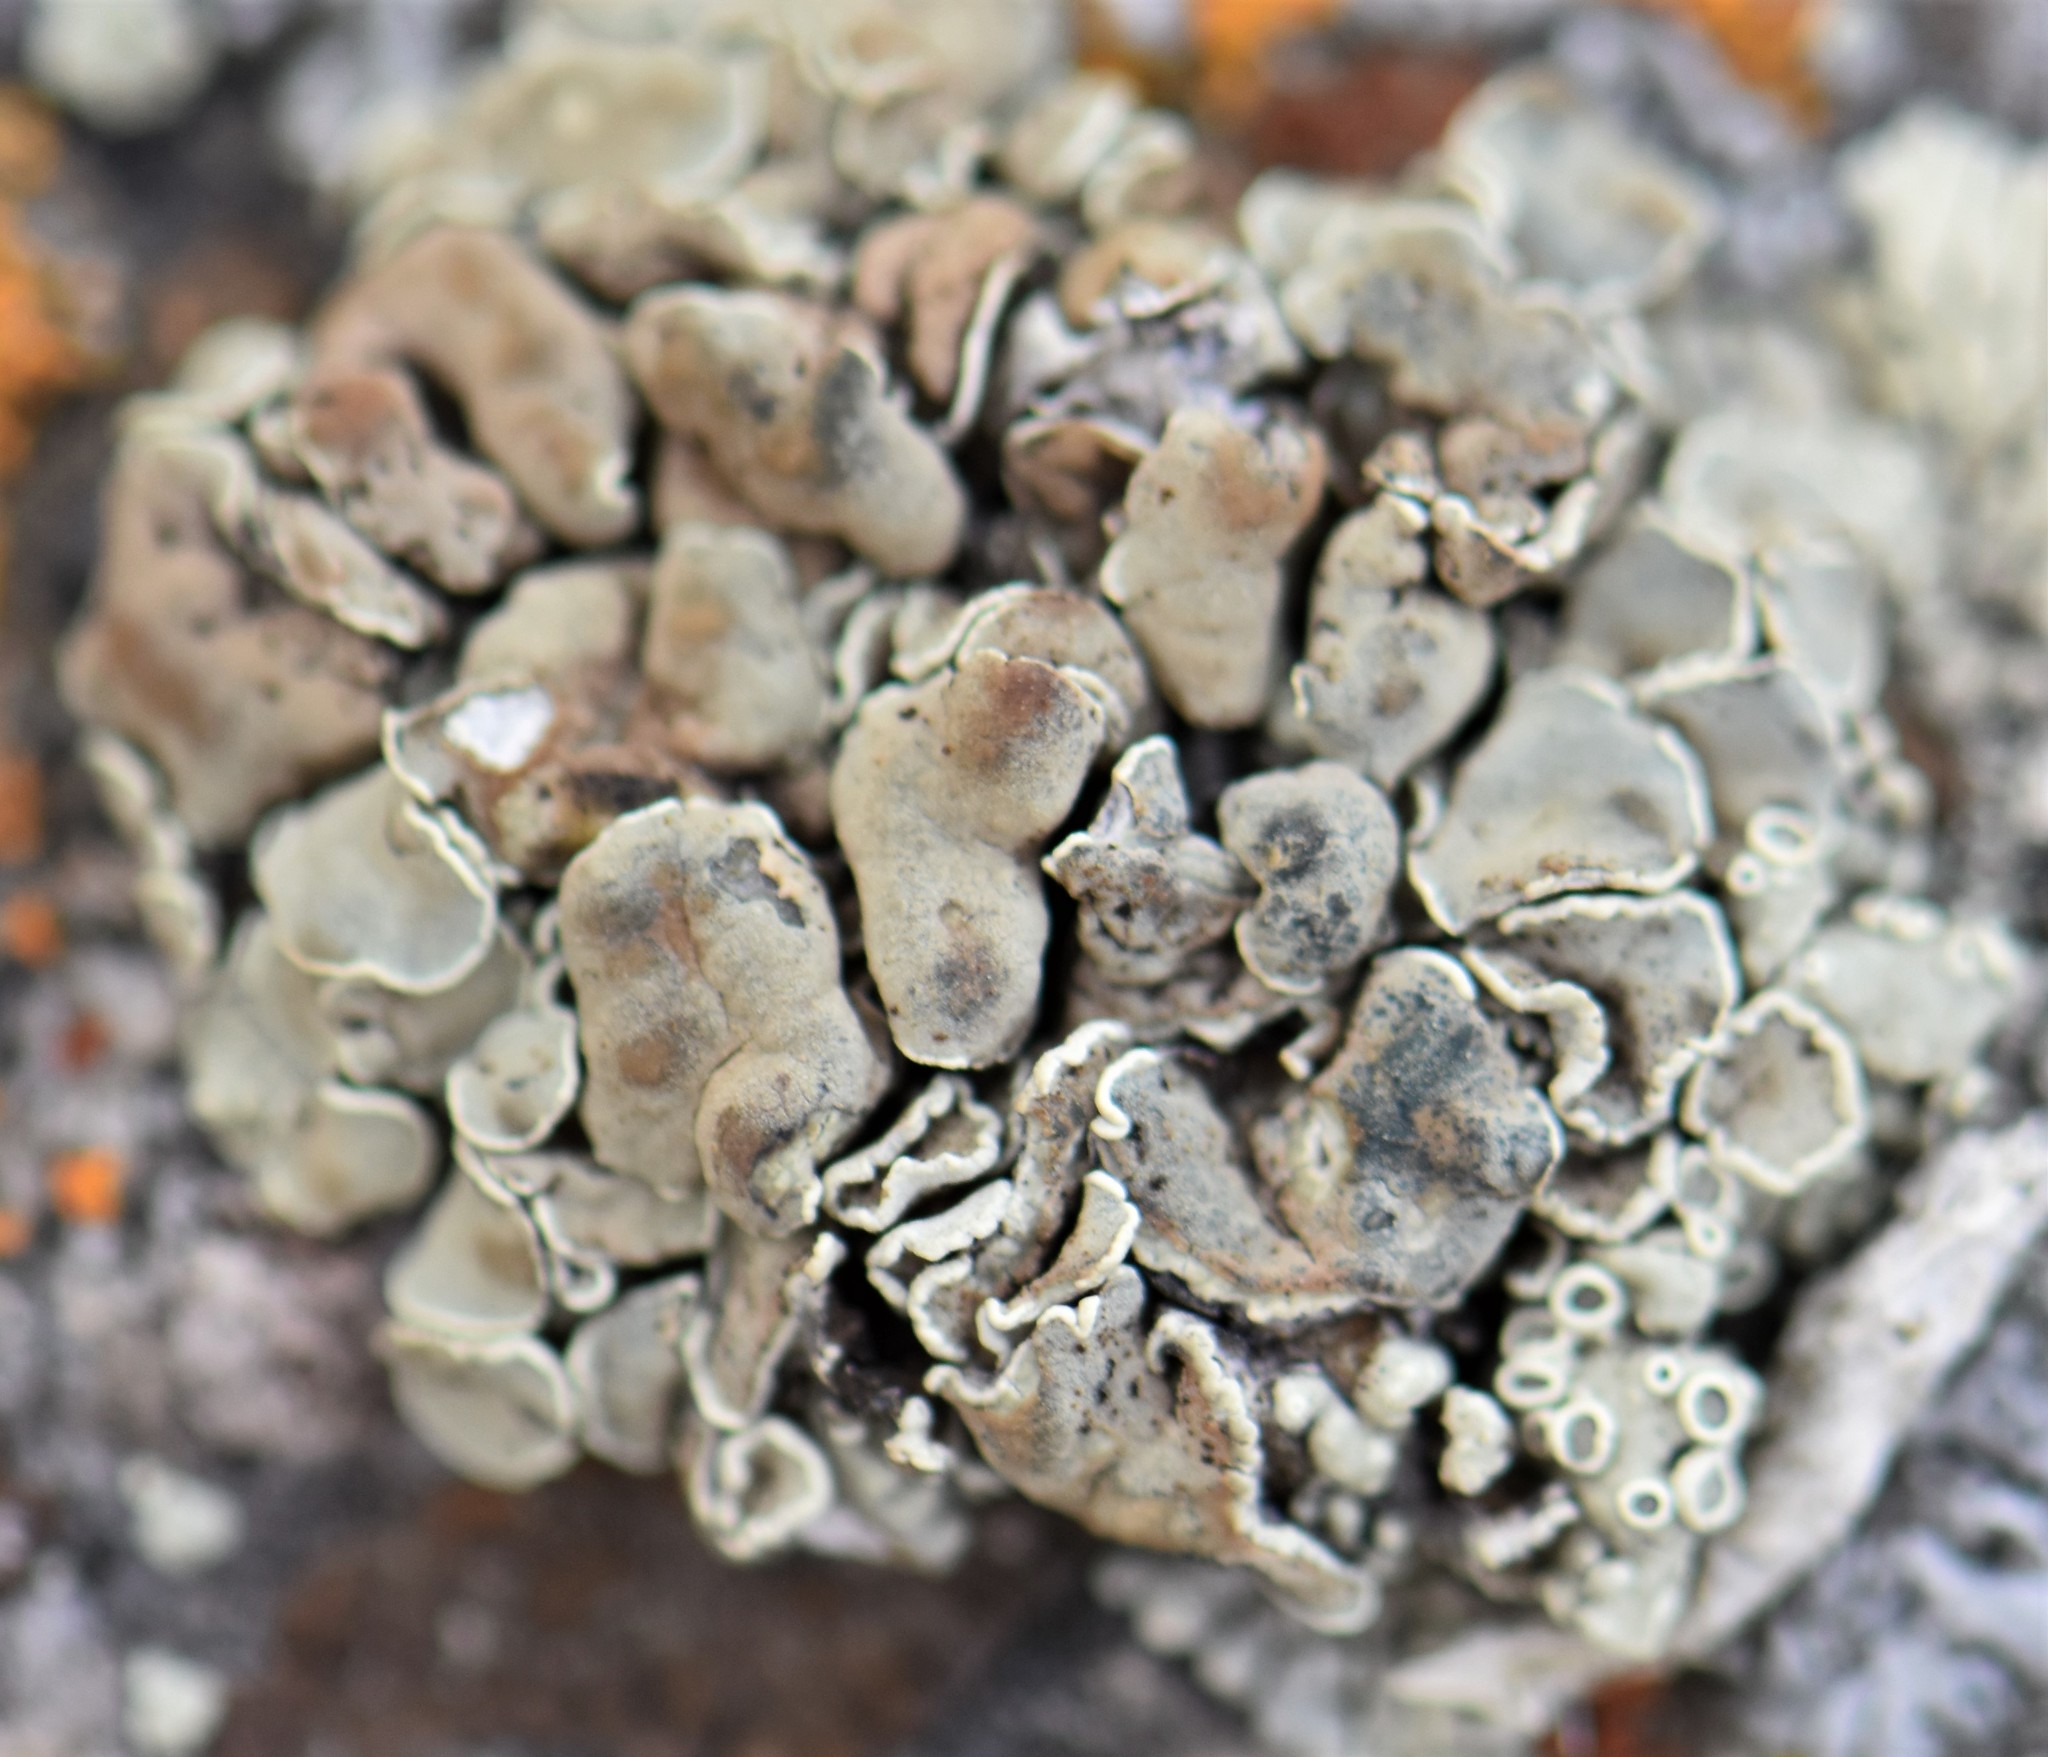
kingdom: Fungi
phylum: Ascomycota
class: Lecanoromycetes
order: Lecanorales
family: Lecanoraceae
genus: Rhizoplaca
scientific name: Rhizoplaca melanophthalma
